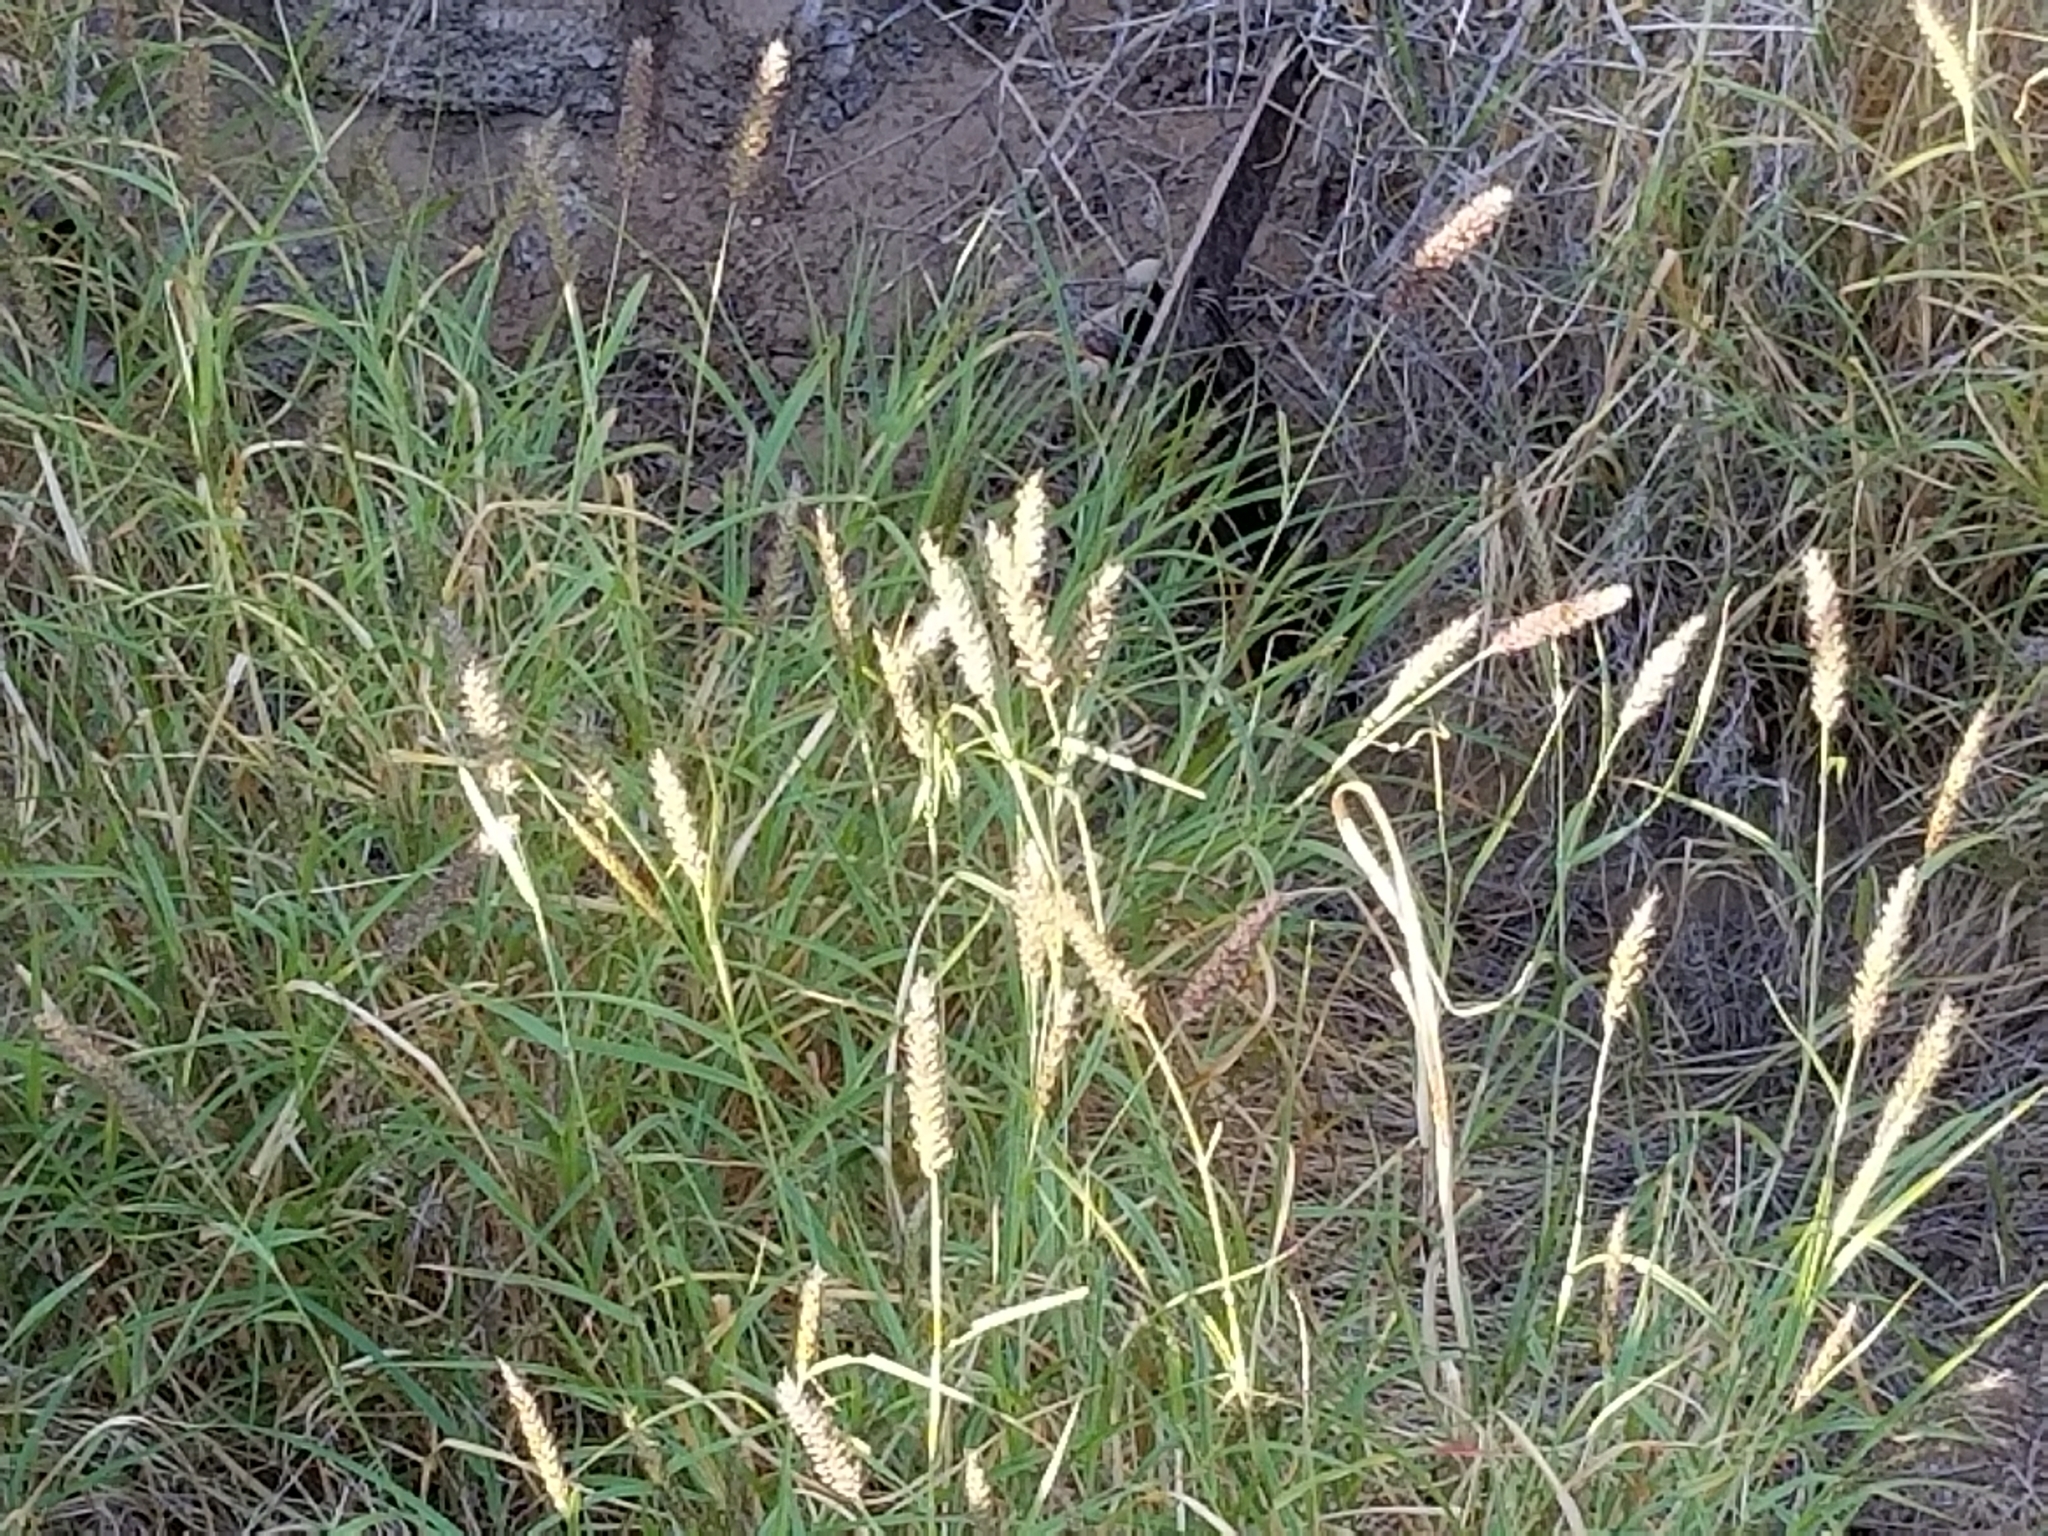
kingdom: Plantae
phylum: Tracheophyta
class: Liliopsida
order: Poales
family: Poaceae
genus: Cenchrus
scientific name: Cenchrus ciliaris
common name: Buffelgrass
